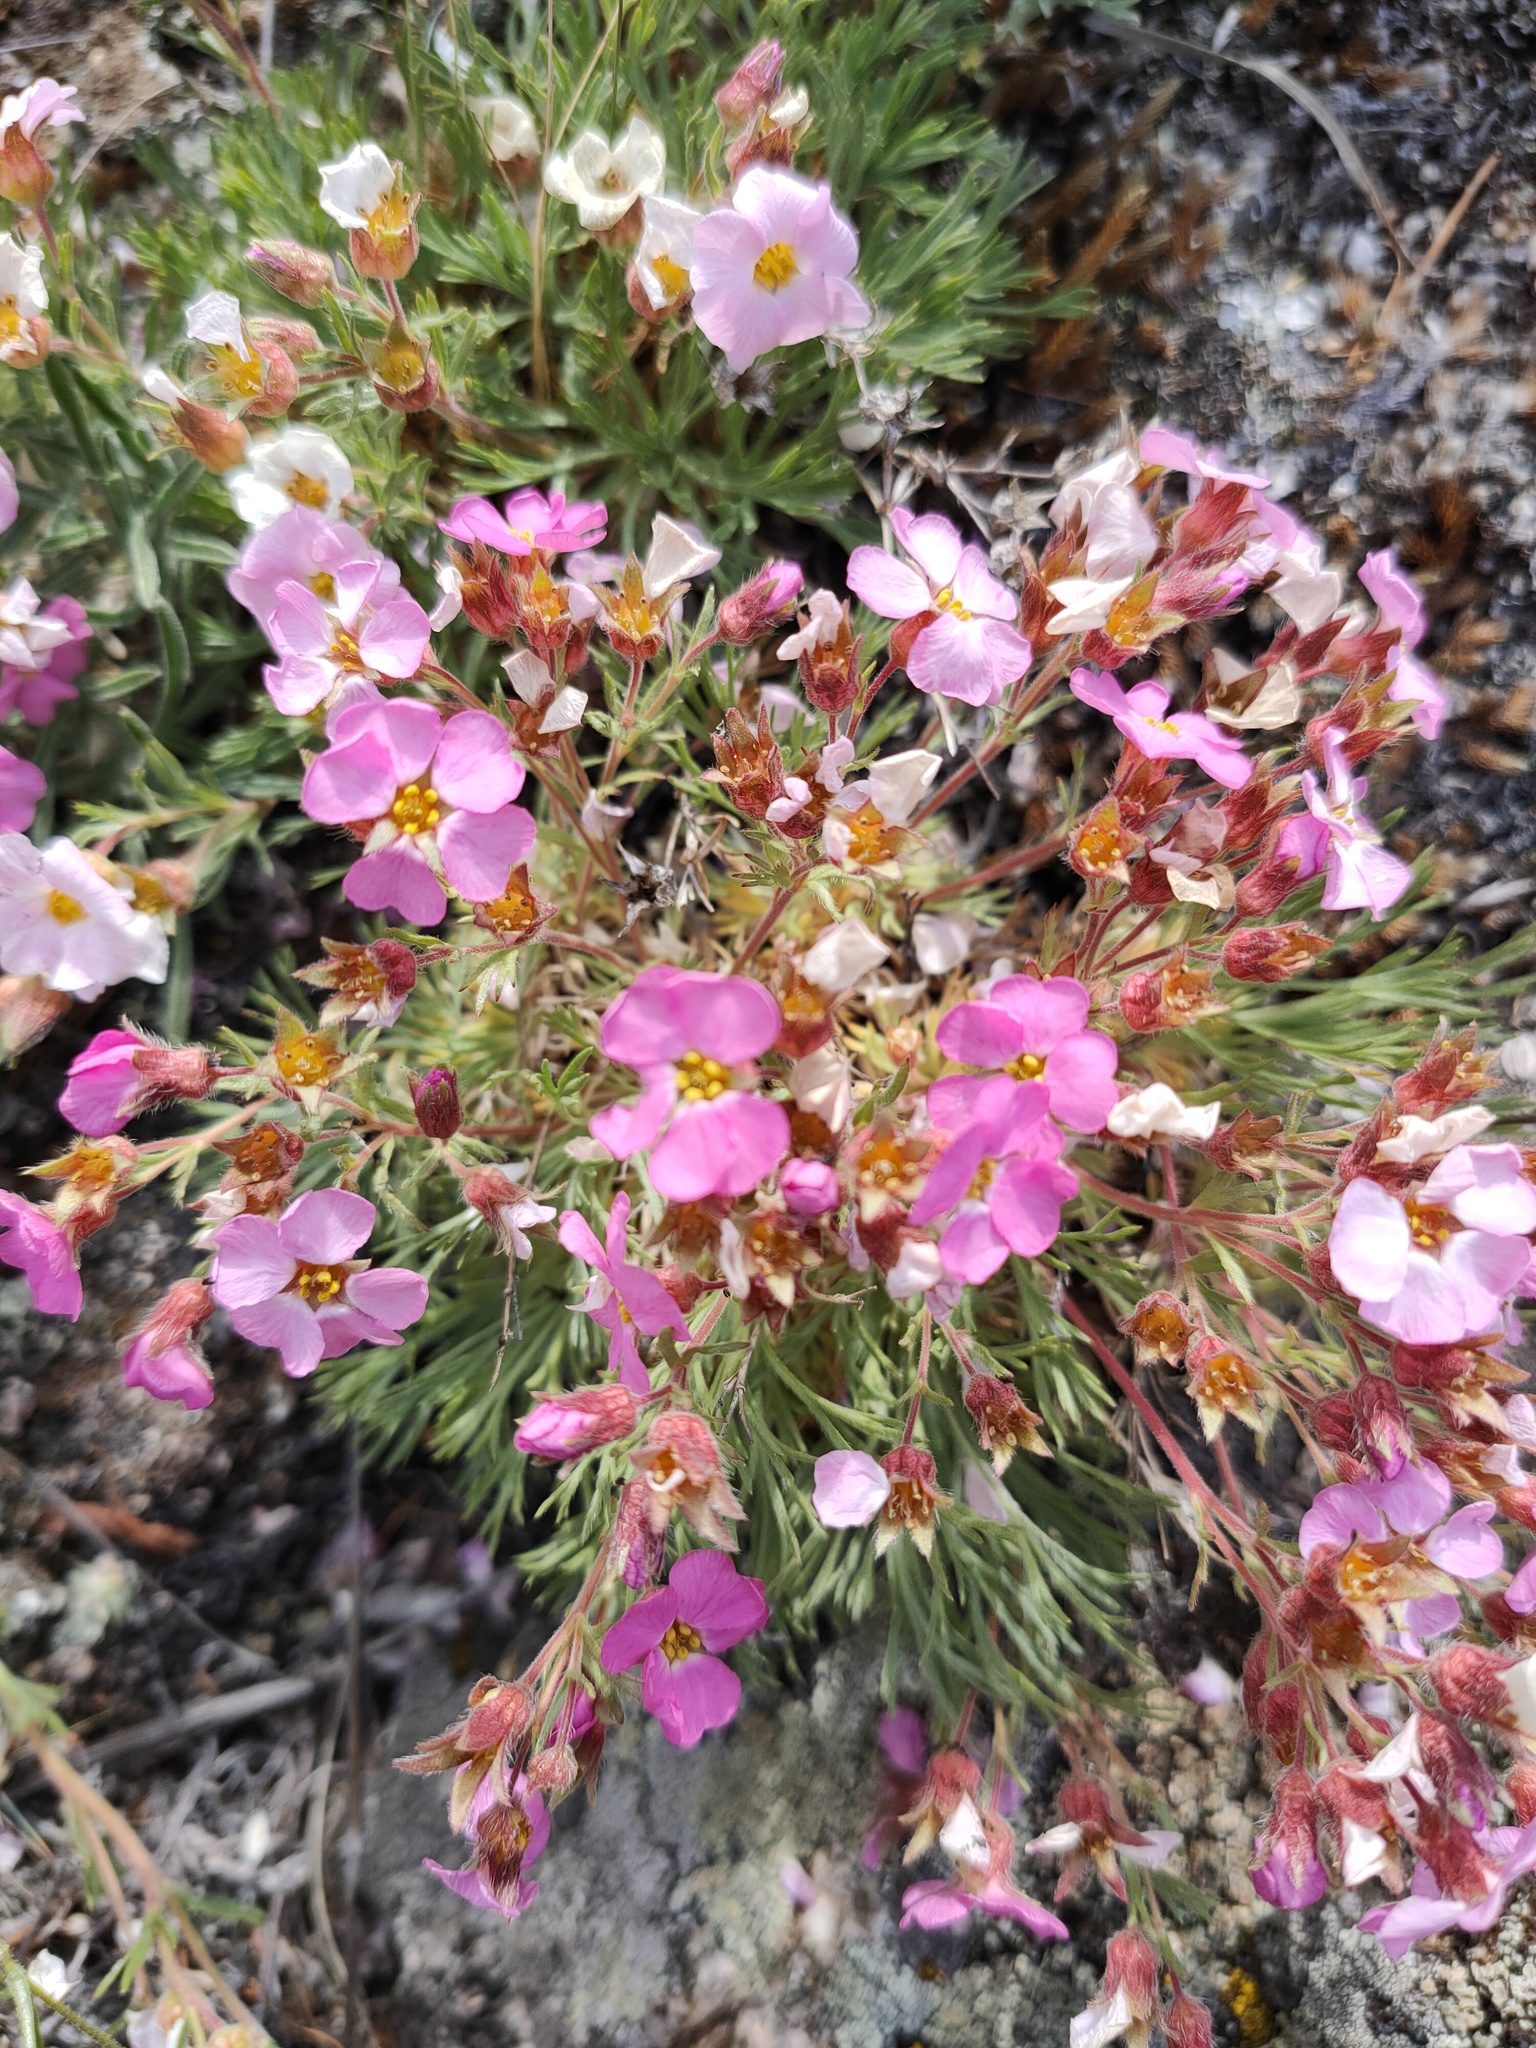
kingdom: Plantae
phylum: Tracheophyta
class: Magnoliopsida
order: Rosales
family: Rosaceae
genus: Chamaerhodos
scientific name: Chamaerhodos grandiflora
